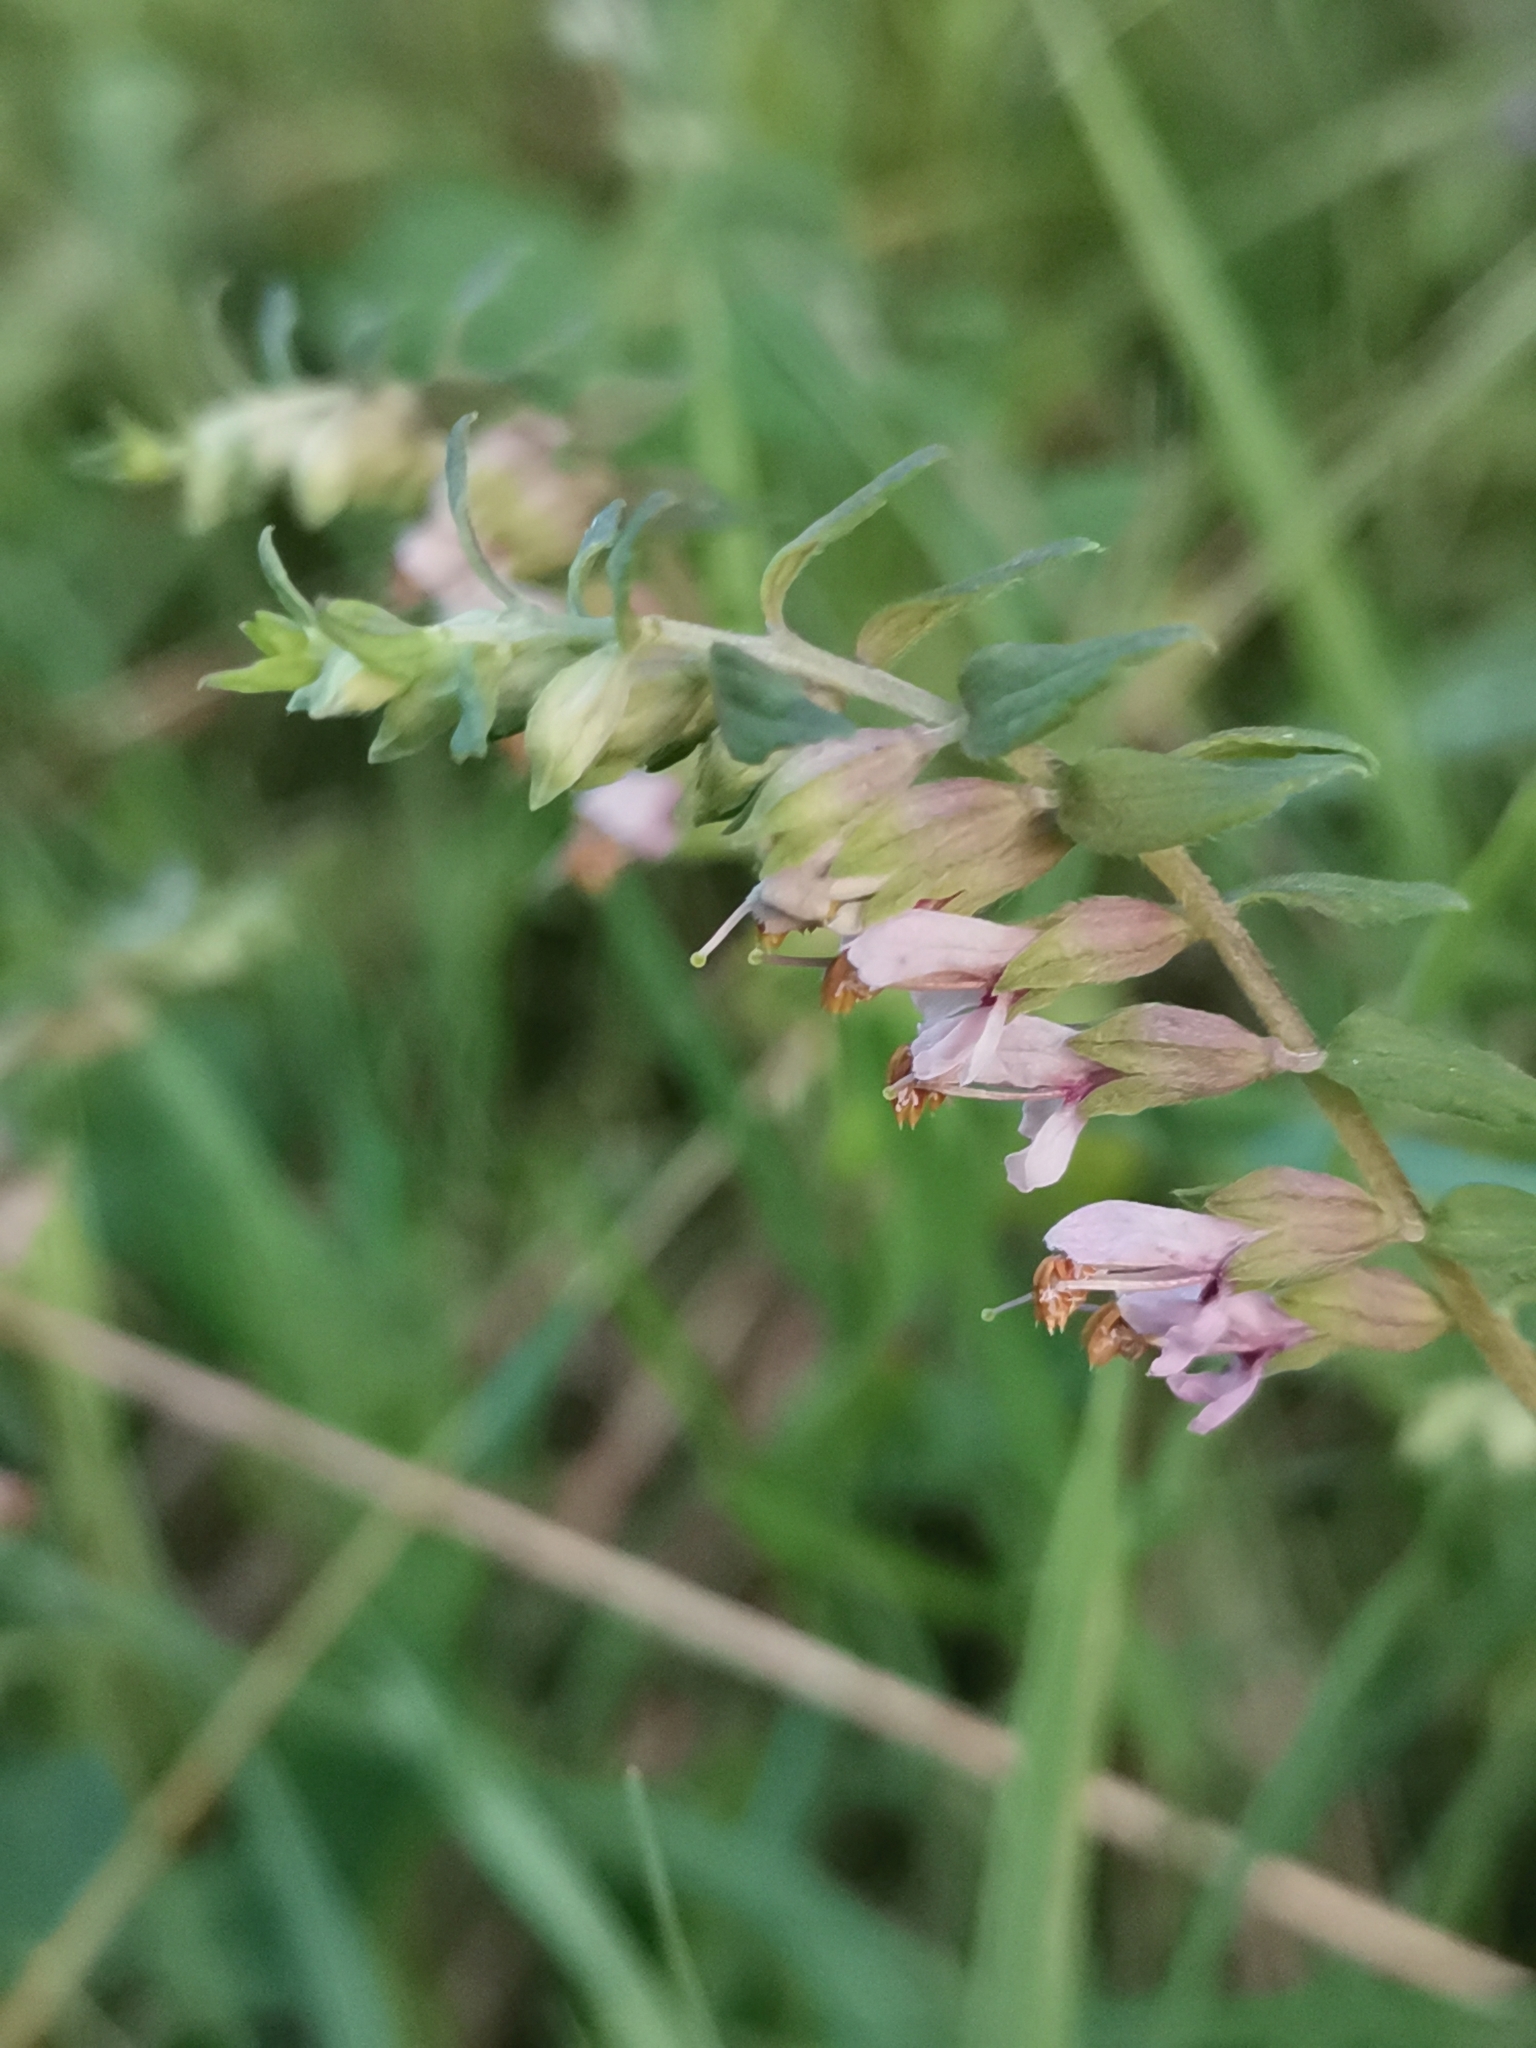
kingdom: Plantae
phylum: Tracheophyta
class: Magnoliopsida
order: Lamiales
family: Orobanchaceae
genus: Odontites
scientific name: Odontites vulgaris
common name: Broomrape
